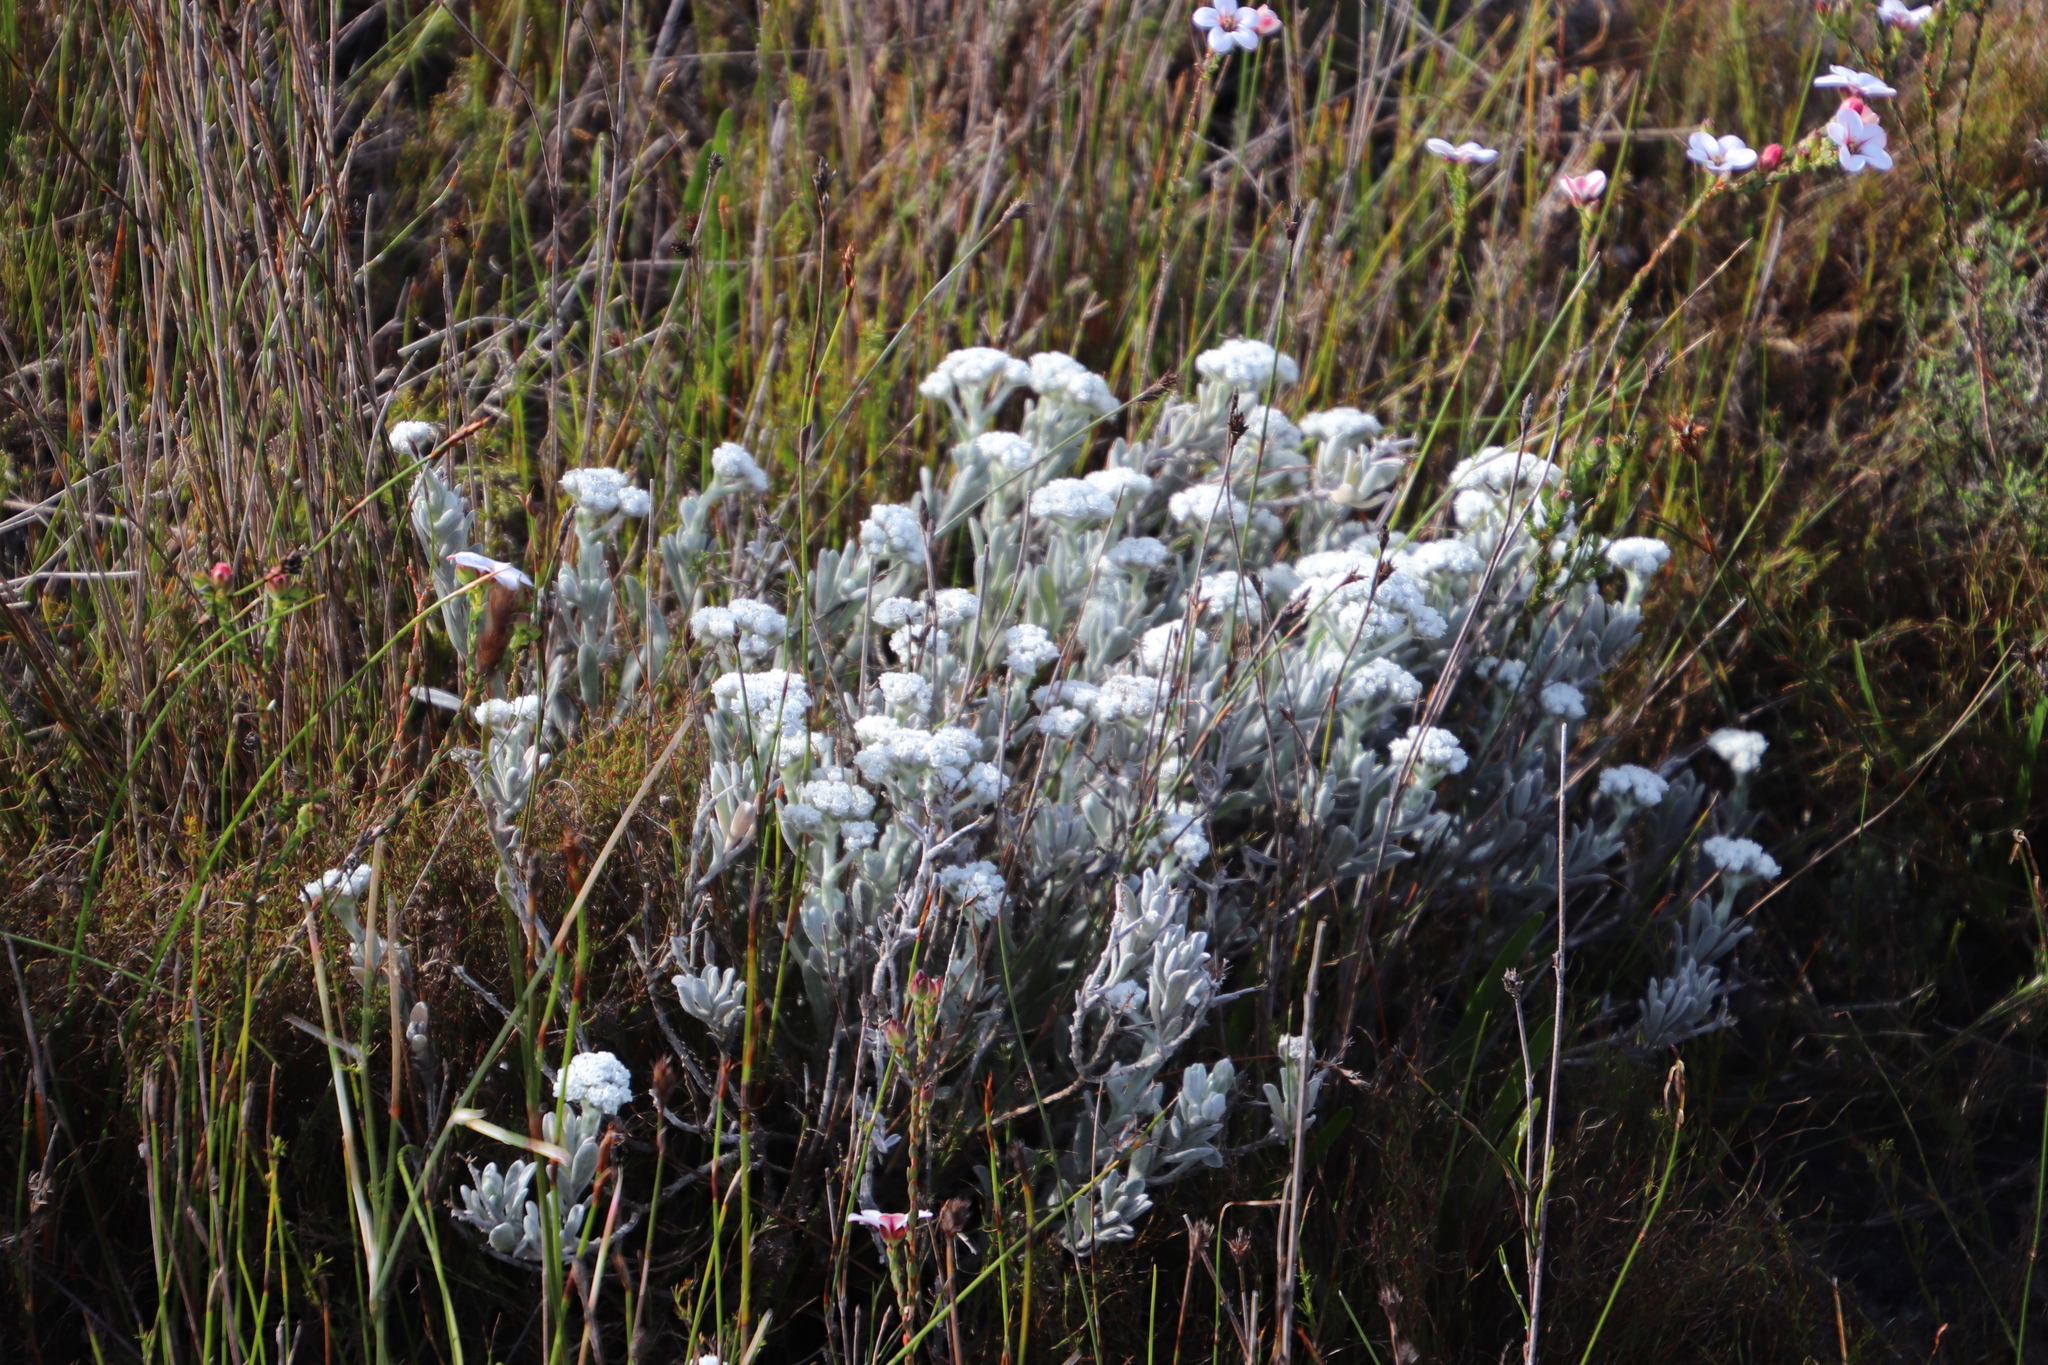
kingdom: Plantae
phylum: Tracheophyta
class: Magnoliopsida
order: Asterales
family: Asteraceae
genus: Petalacte
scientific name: Petalacte coronata
